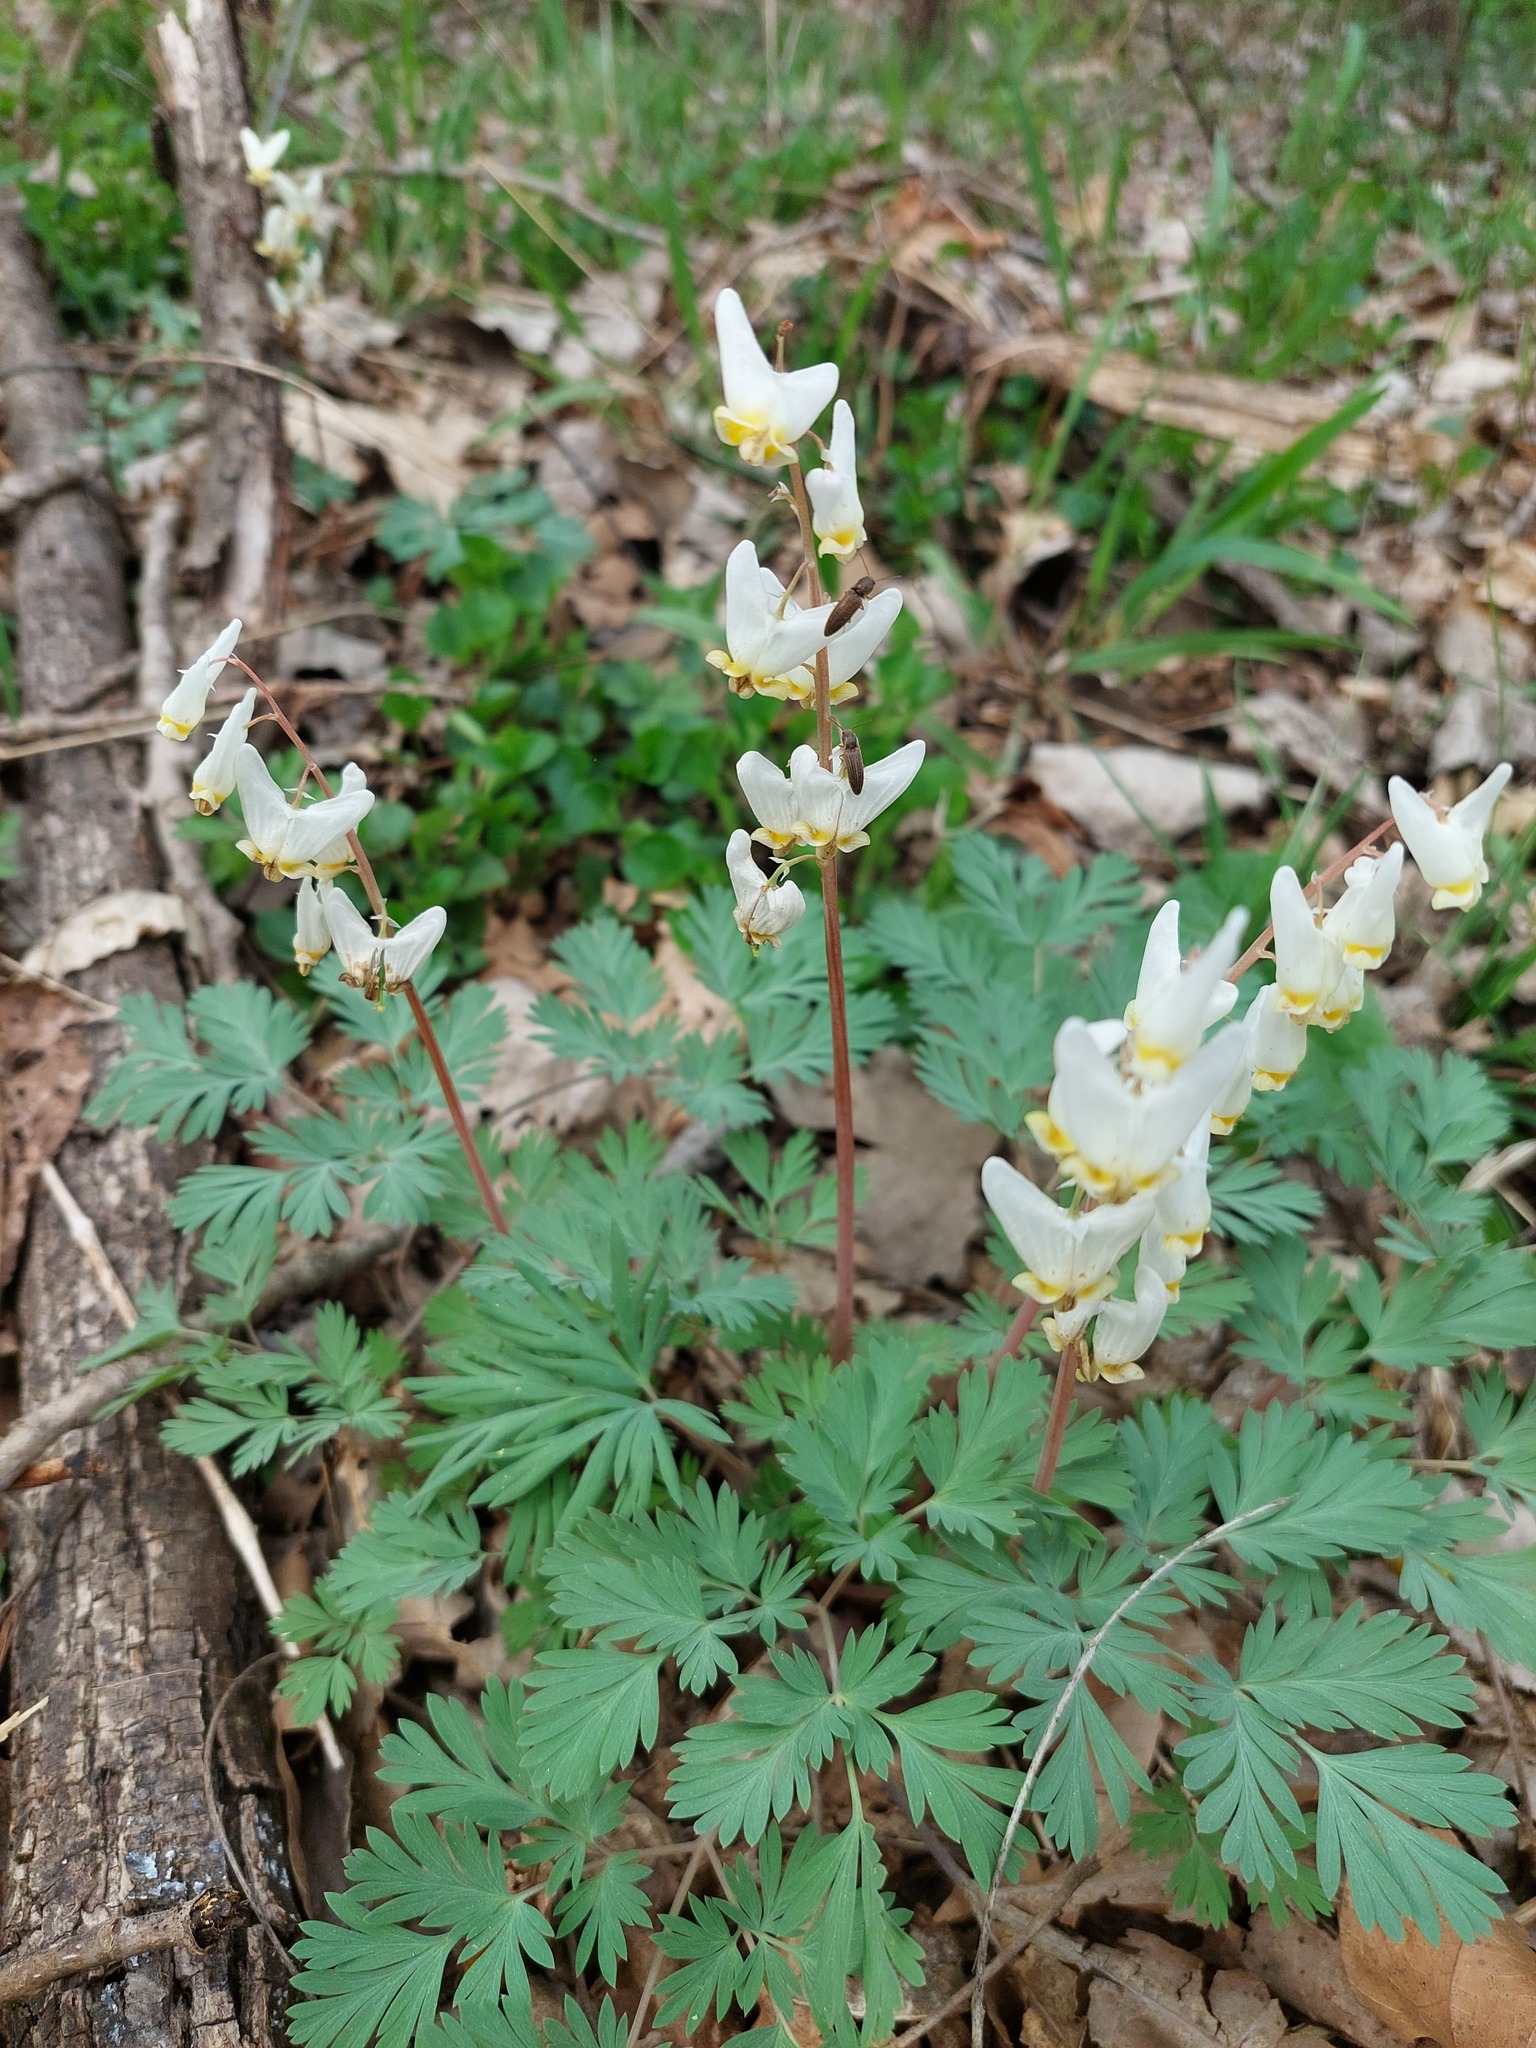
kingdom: Plantae
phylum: Tracheophyta
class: Magnoliopsida
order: Ranunculales
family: Papaveraceae
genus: Dicentra
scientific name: Dicentra cucullaria
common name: Dutchman's breeches
